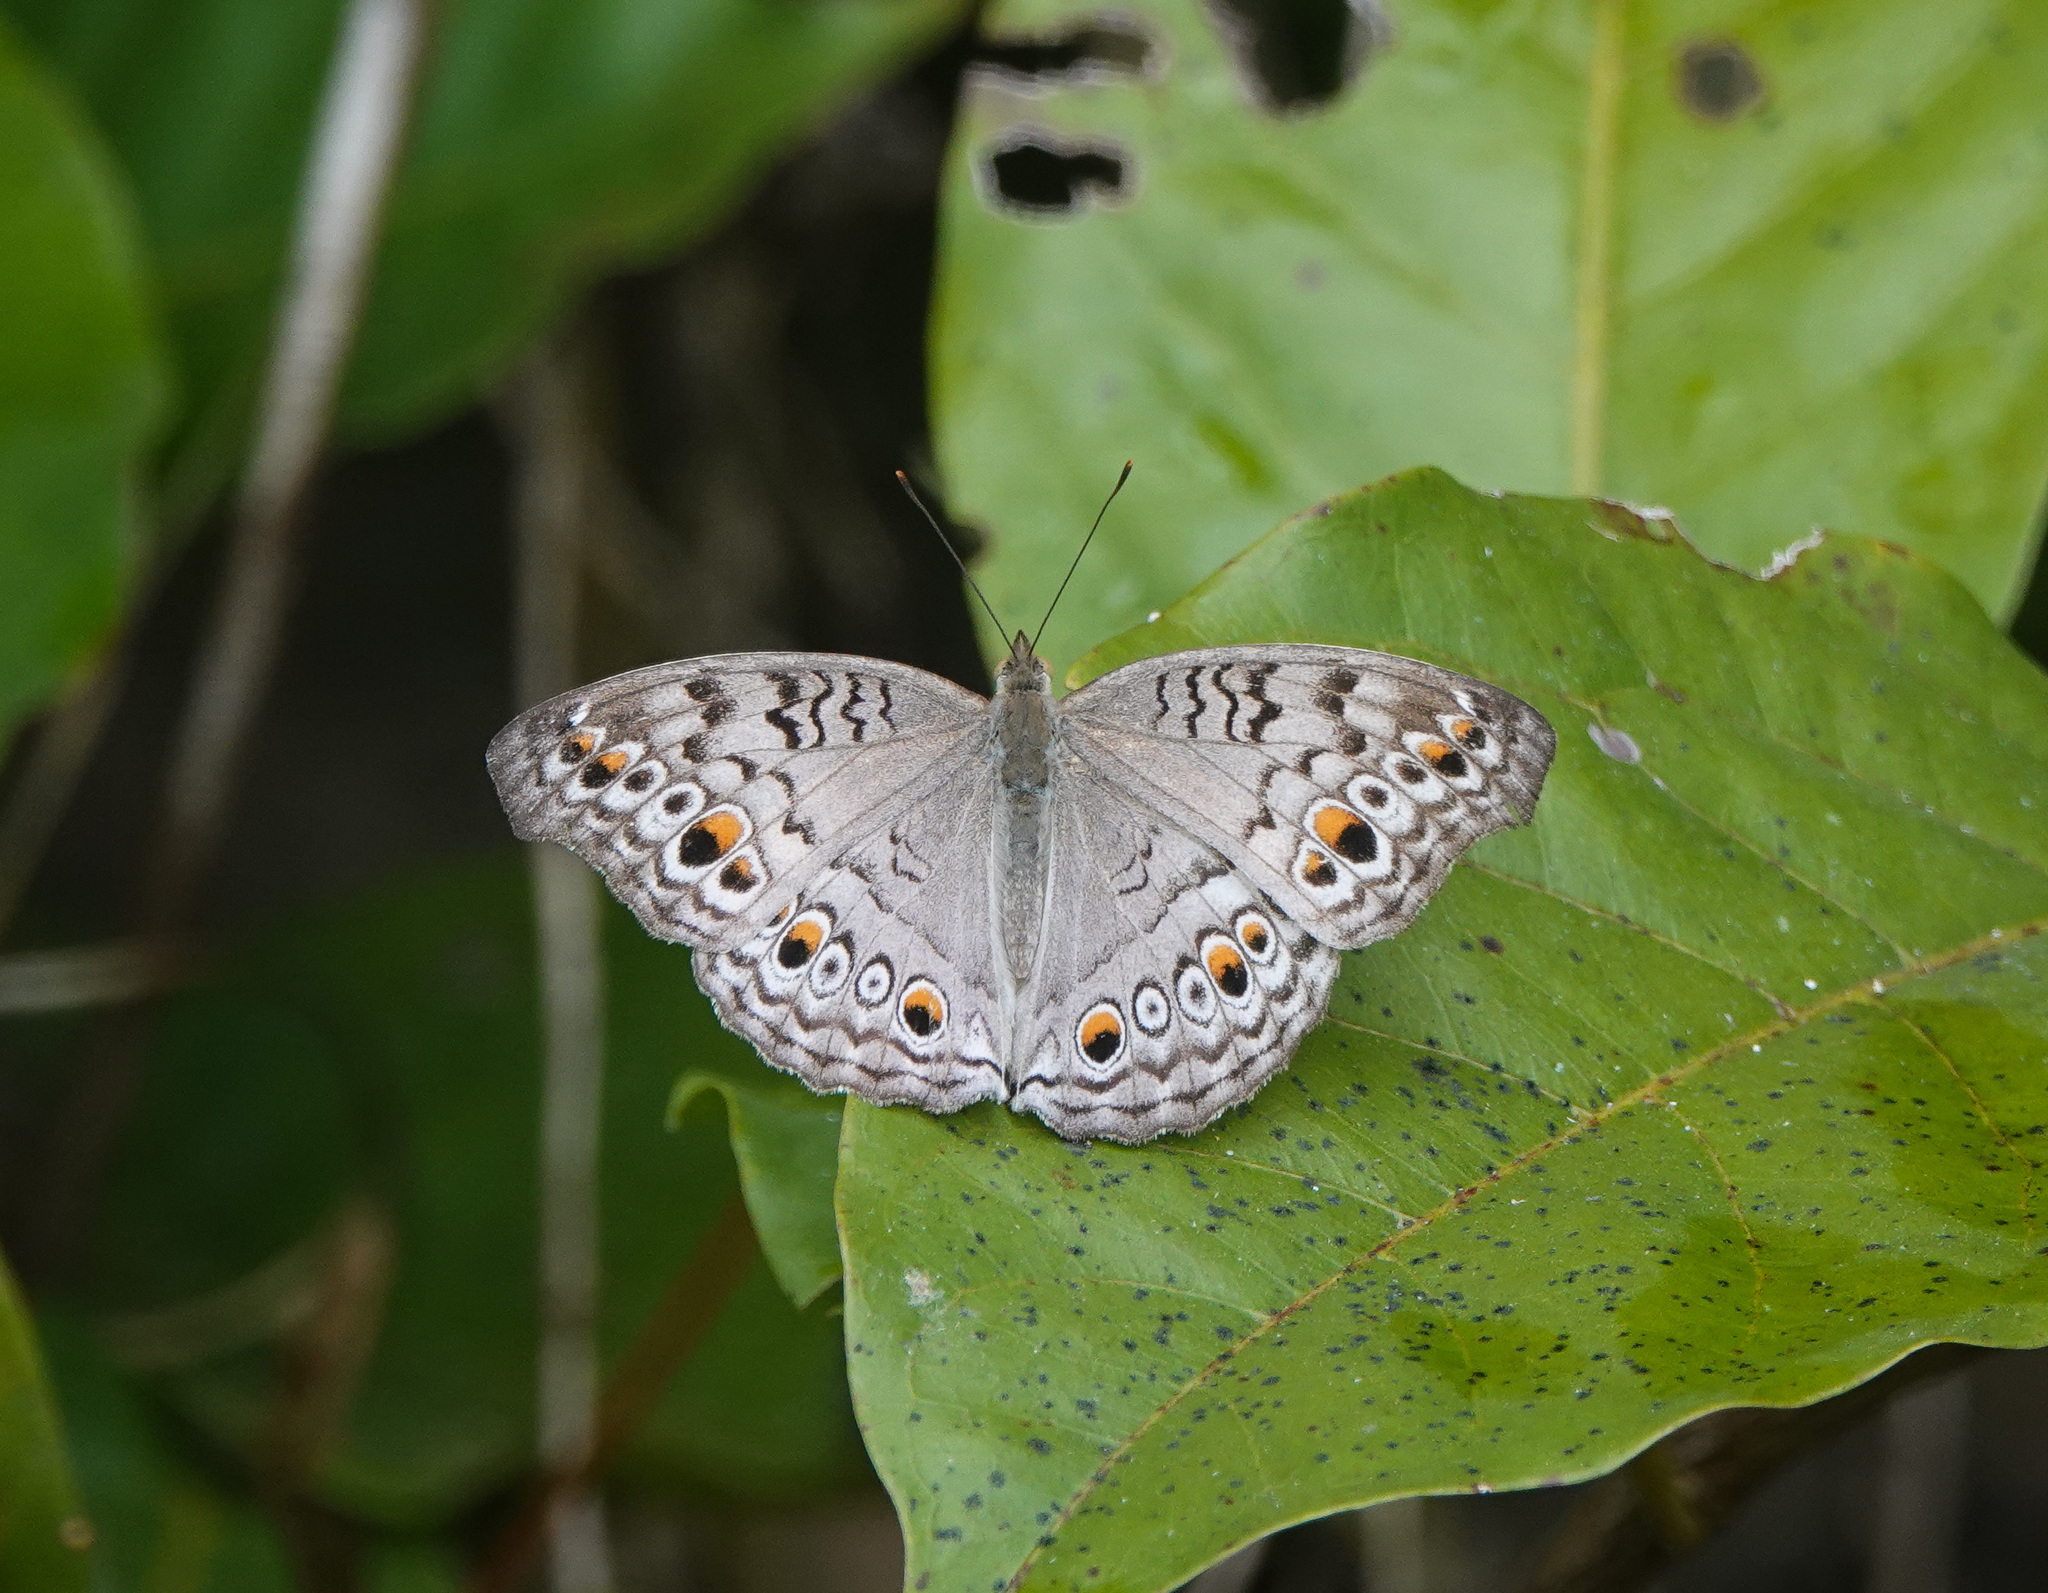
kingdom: Animalia
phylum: Arthropoda
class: Insecta
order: Lepidoptera
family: Nymphalidae
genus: Junonia
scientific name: Junonia atlites
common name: Grey pansy
